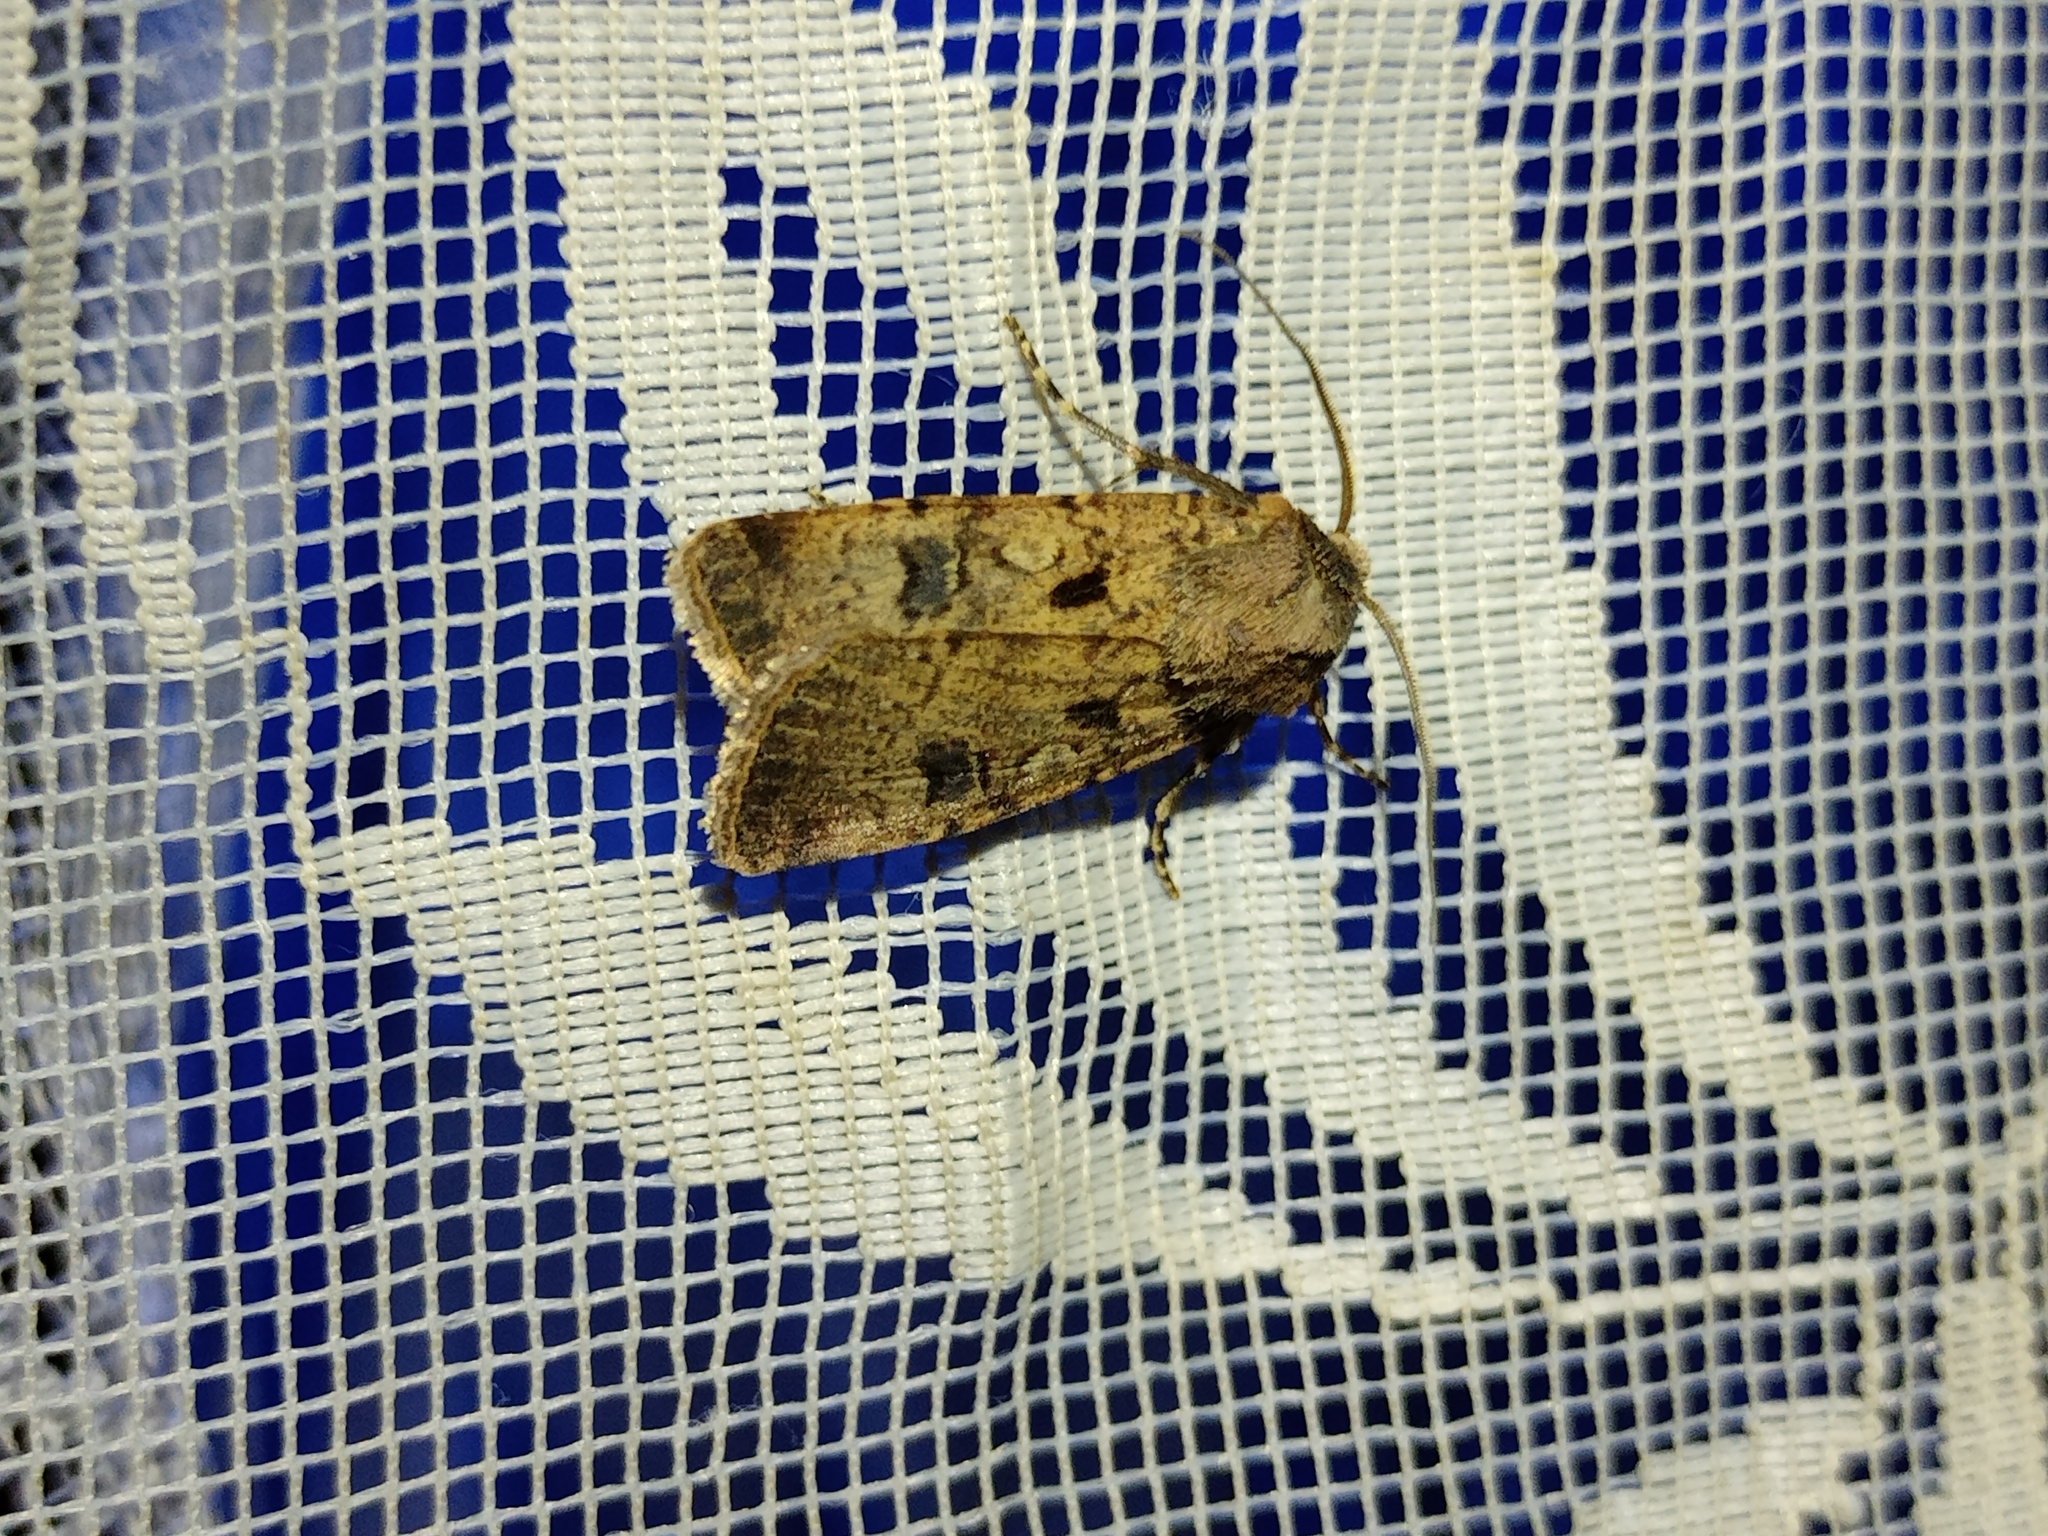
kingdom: Animalia
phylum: Arthropoda
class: Insecta
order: Lepidoptera
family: Noctuidae
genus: Agrotis
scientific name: Agrotis trux
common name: Crescent dart
